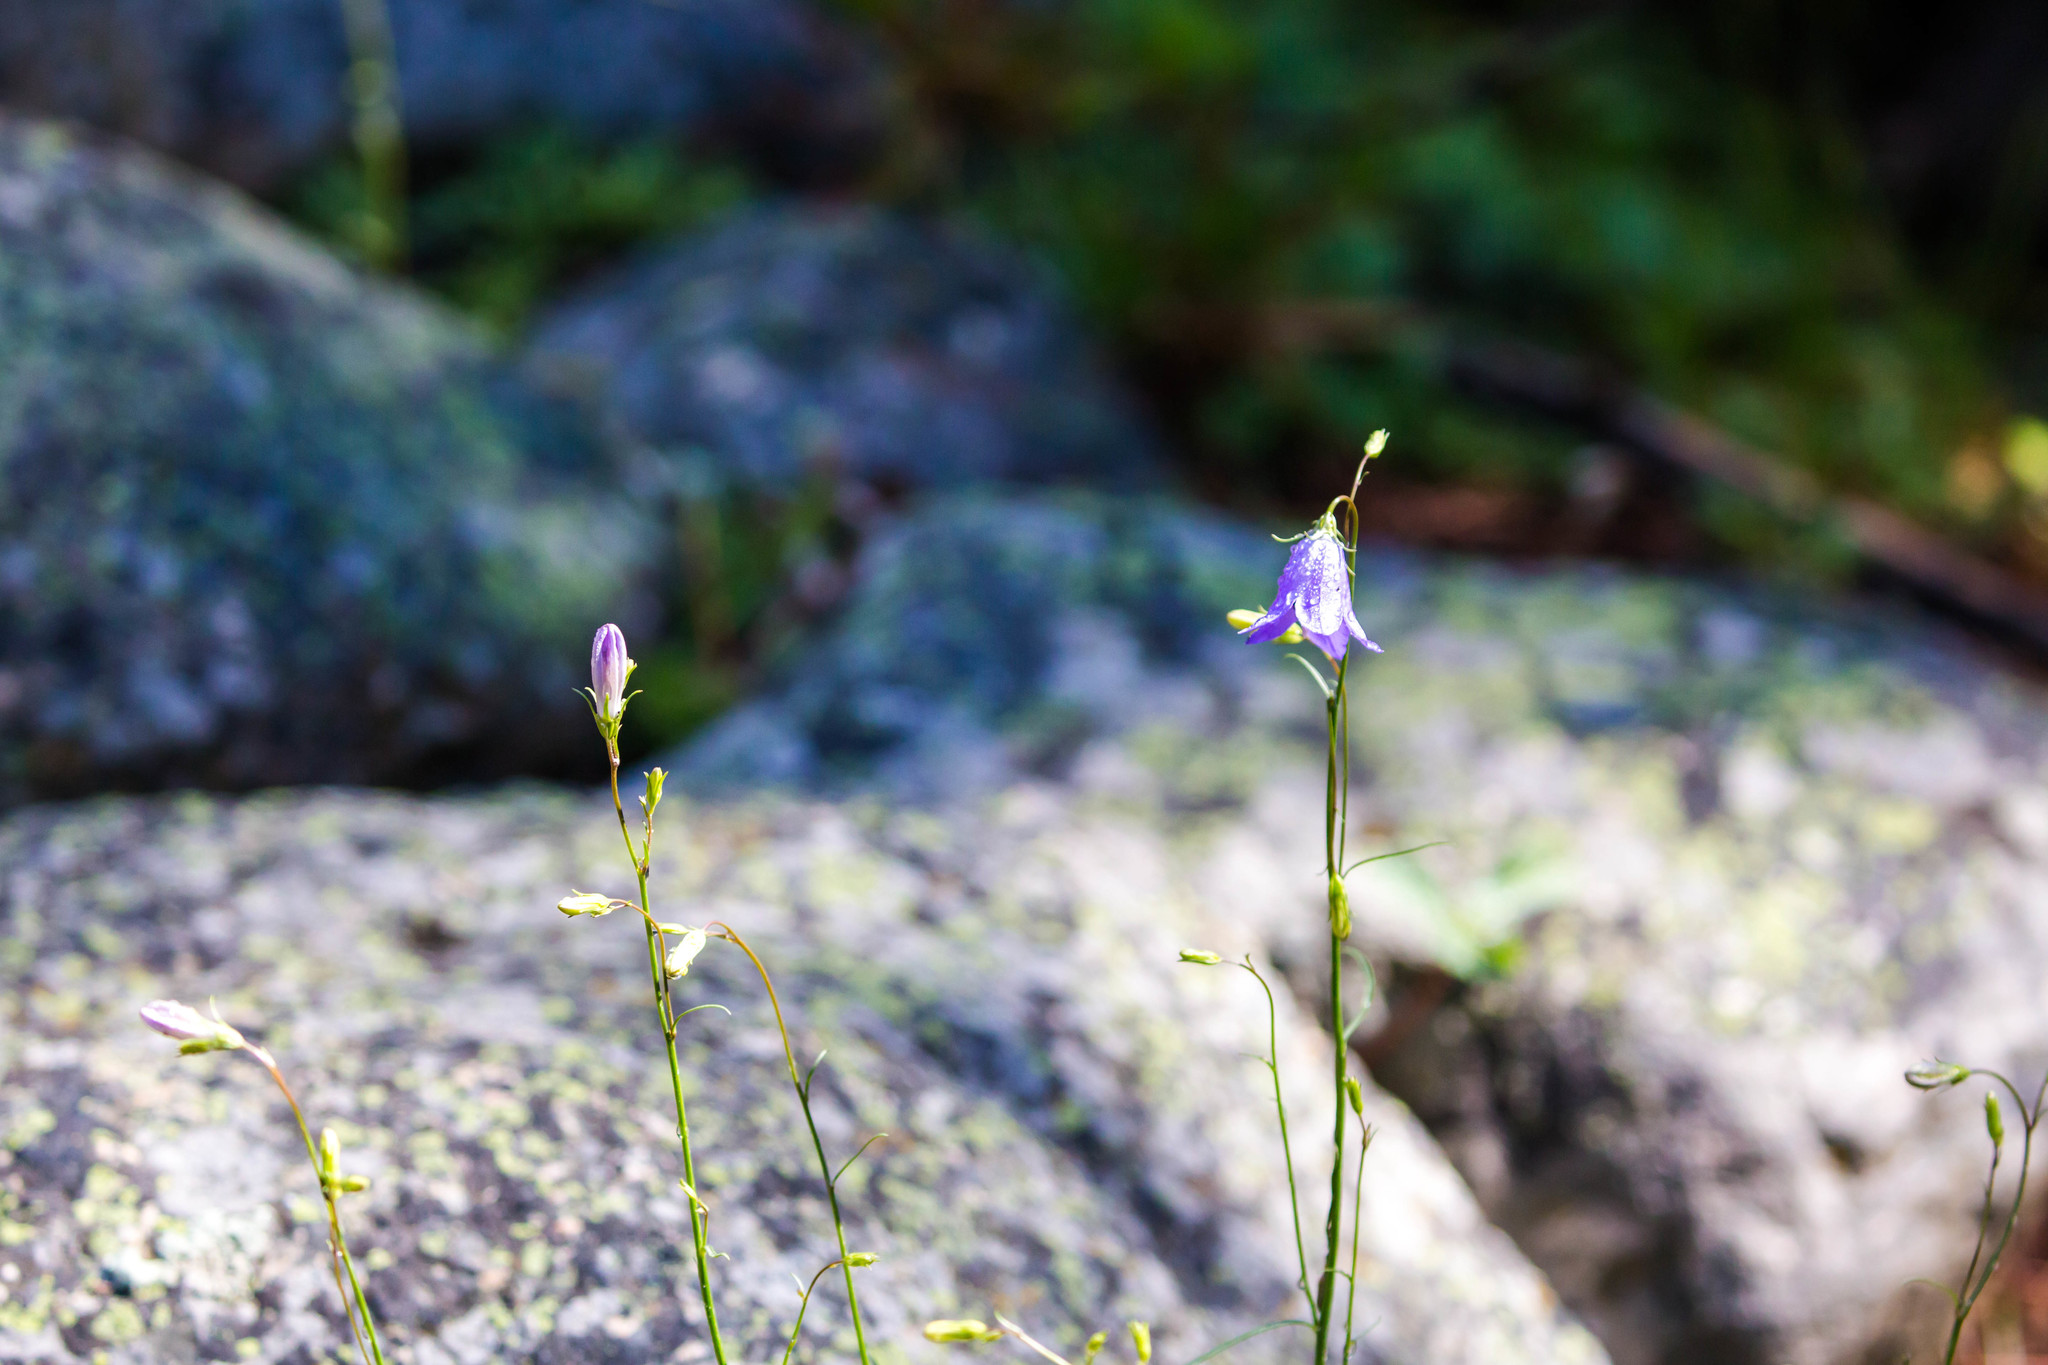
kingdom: Plantae
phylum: Tracheophyta
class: Magnoliopsida
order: Asterales
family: Campanulaceae
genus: Campanula
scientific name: Campanula petiolata
